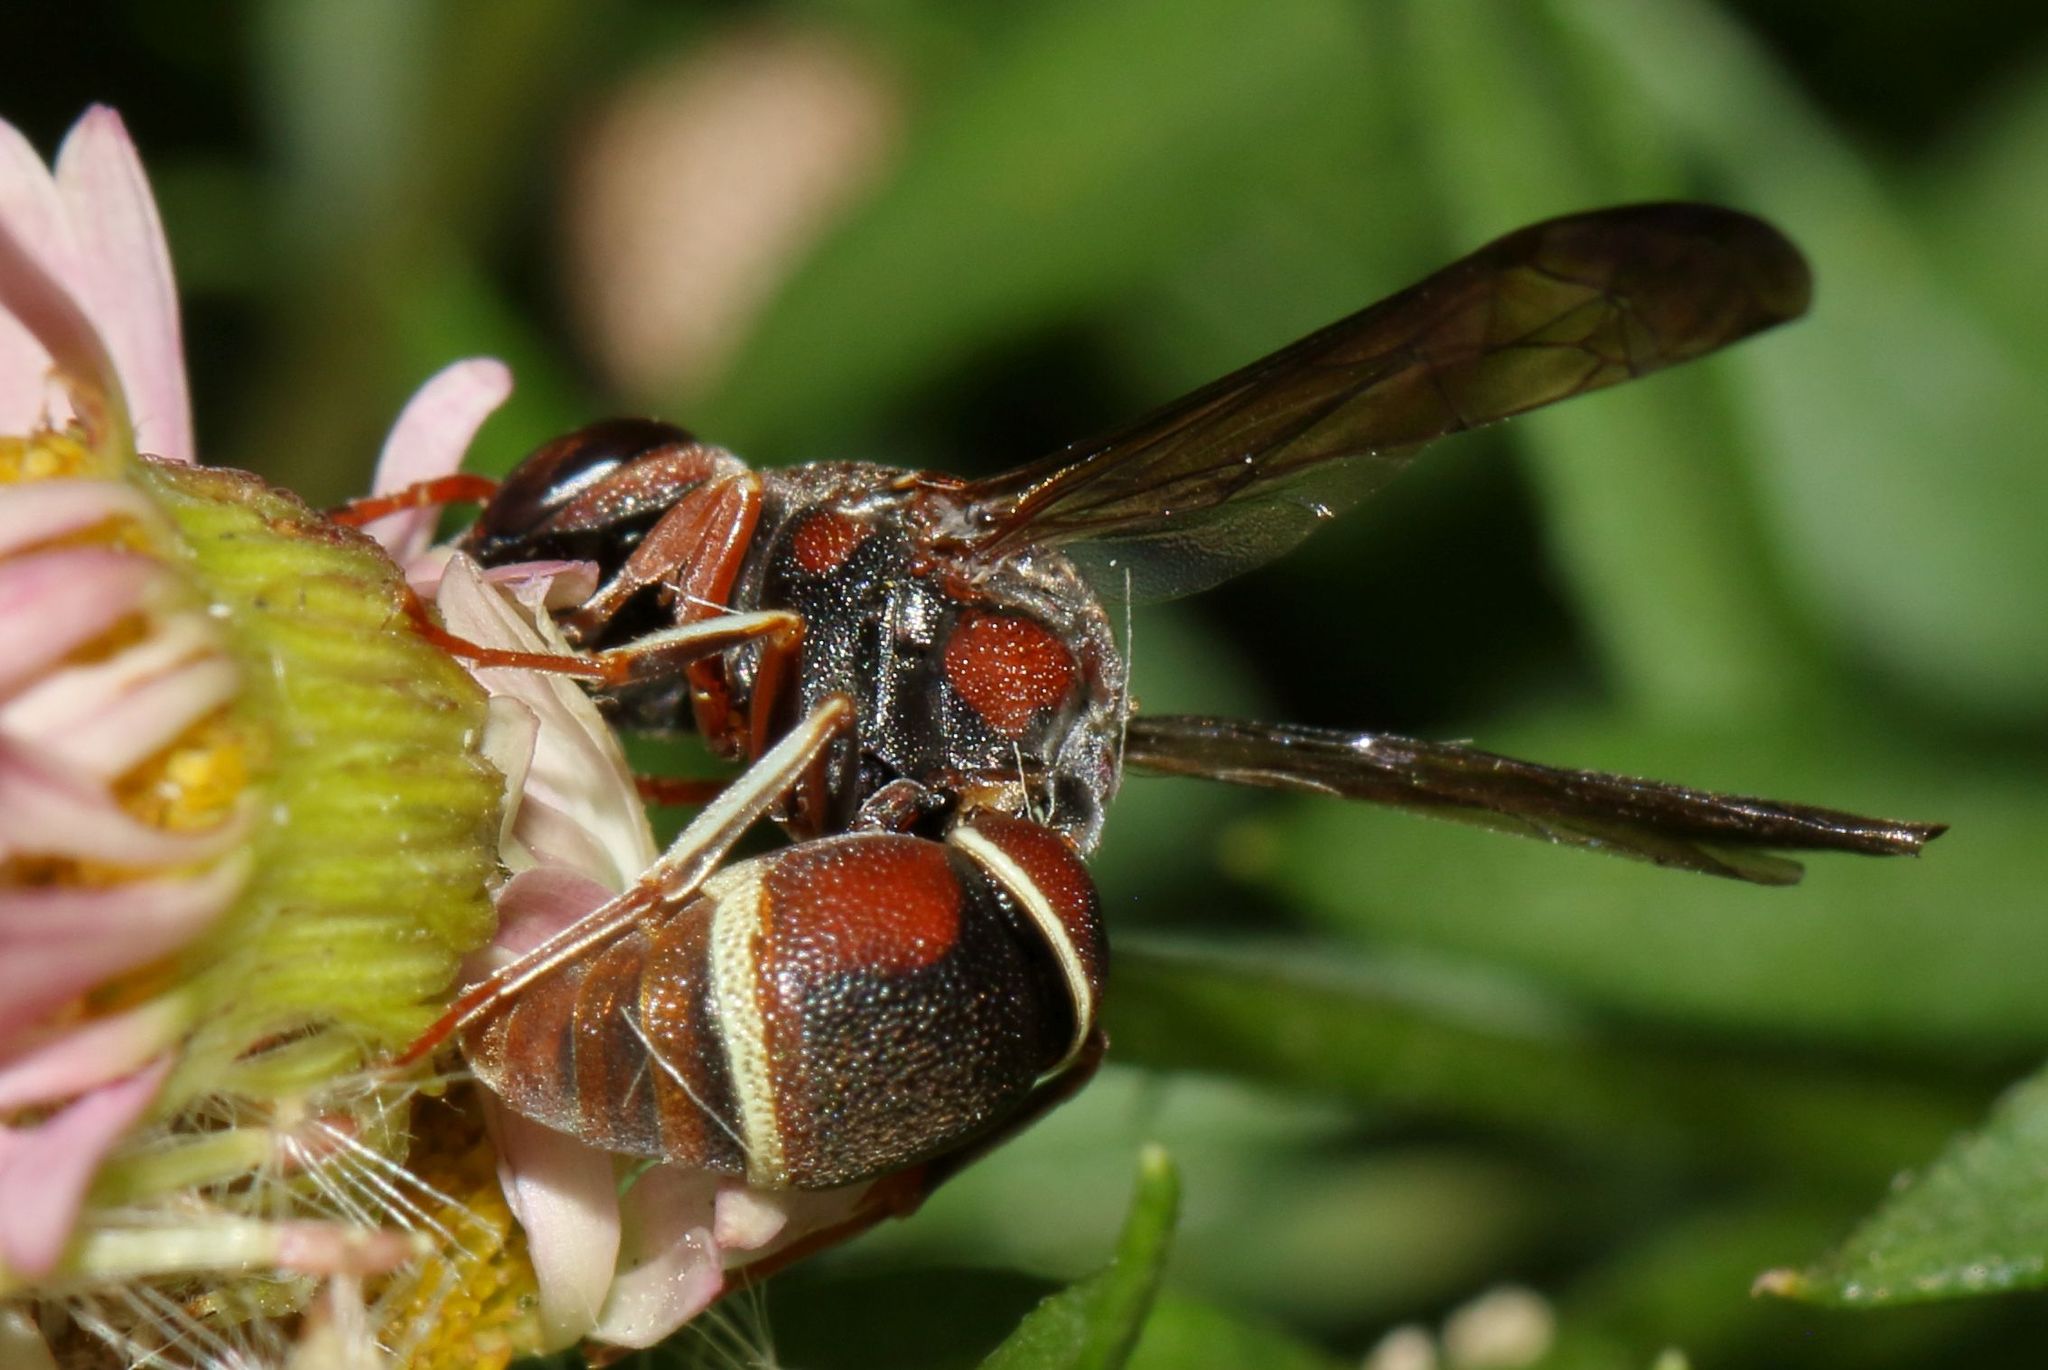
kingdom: Animalia
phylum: Arthropoda
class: Insecta
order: Hymenoptera
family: Eumenidae
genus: Antepipona
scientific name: Antepipona
